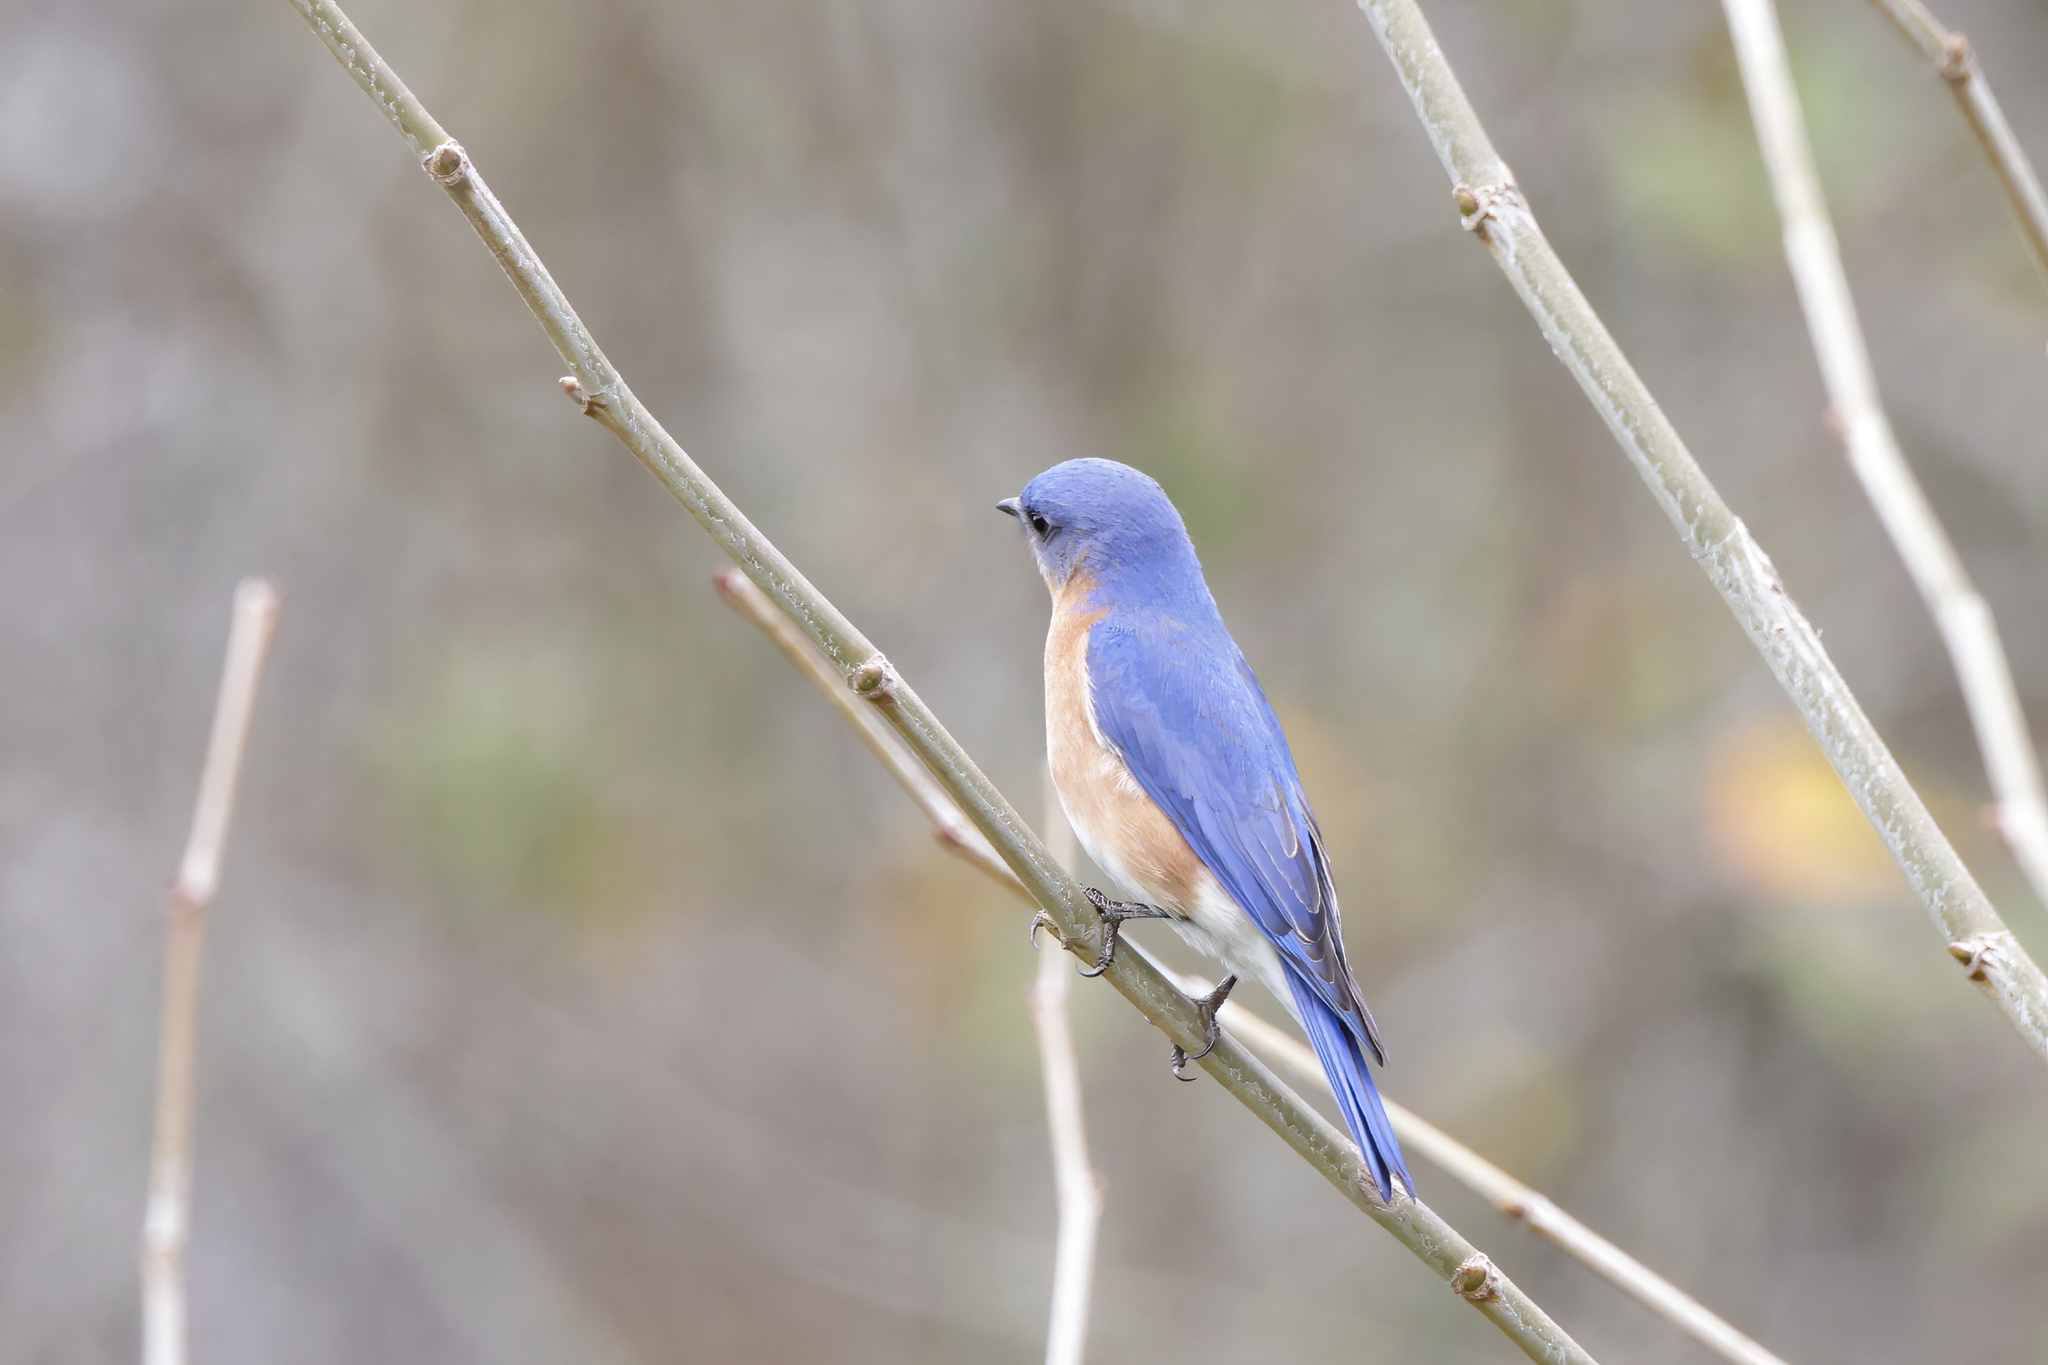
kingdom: Animalia
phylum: Chordata
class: Aves
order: Passeriformes
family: Turdidae
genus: Sialia
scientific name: Sialia sialis
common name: Eastern bluebird
